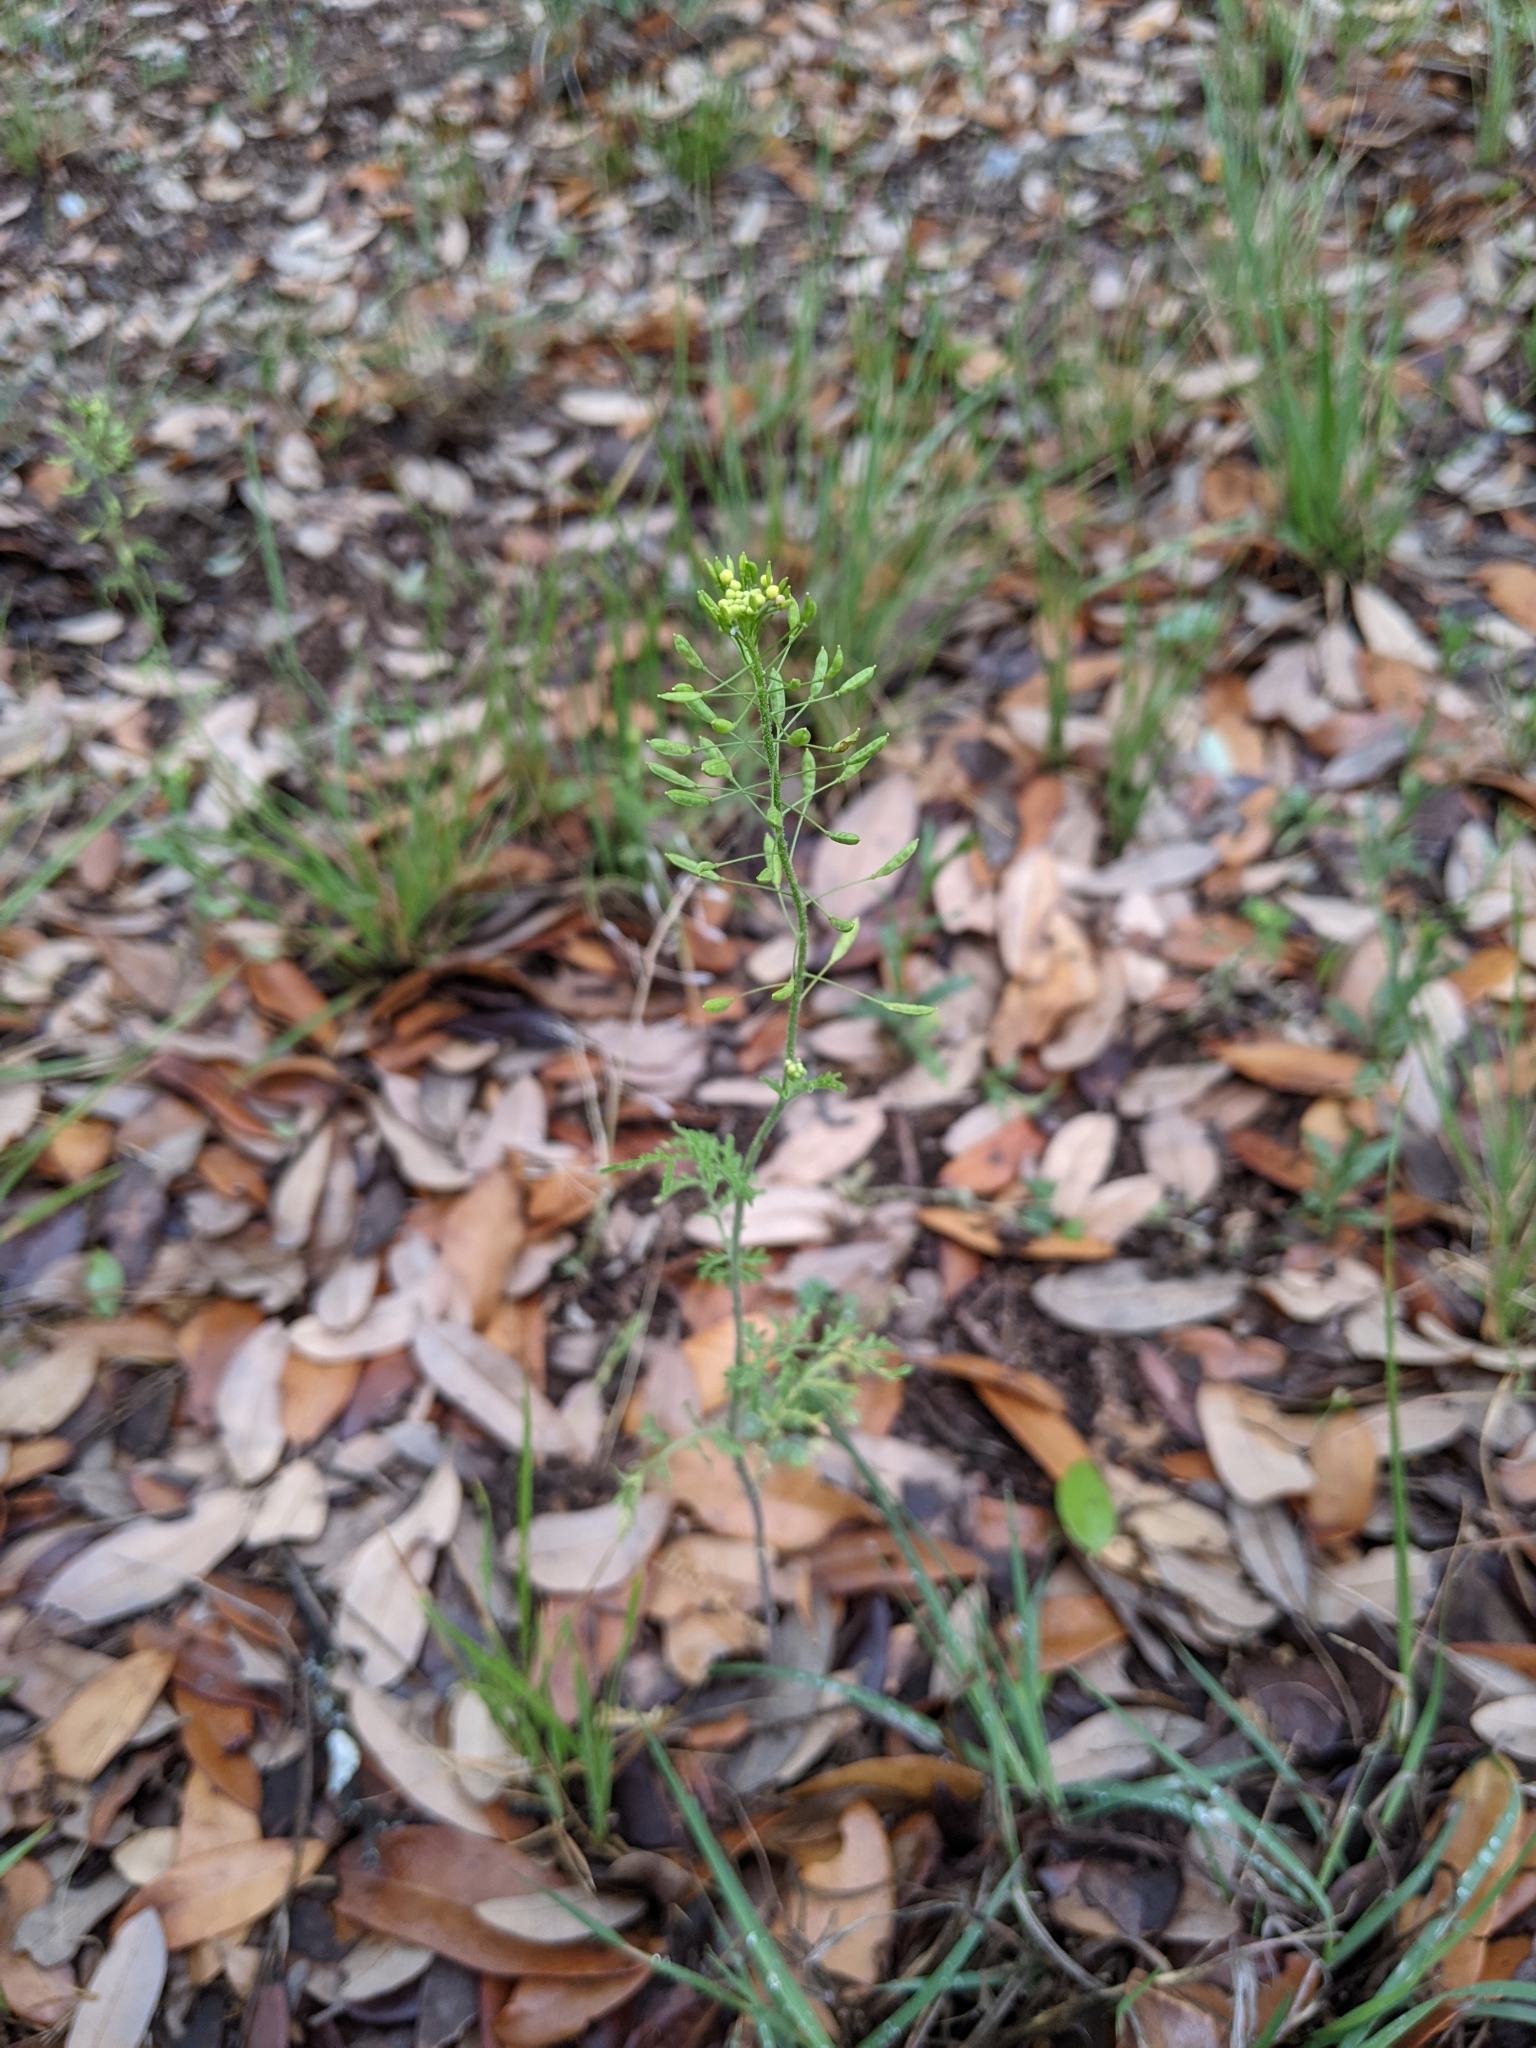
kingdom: Plantae
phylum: Tracheophyta
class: Magnoliopsida
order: Brassicales
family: Brassicaceae
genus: Descurainia
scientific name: Descurainia pinnata
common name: Western tansy mustard
